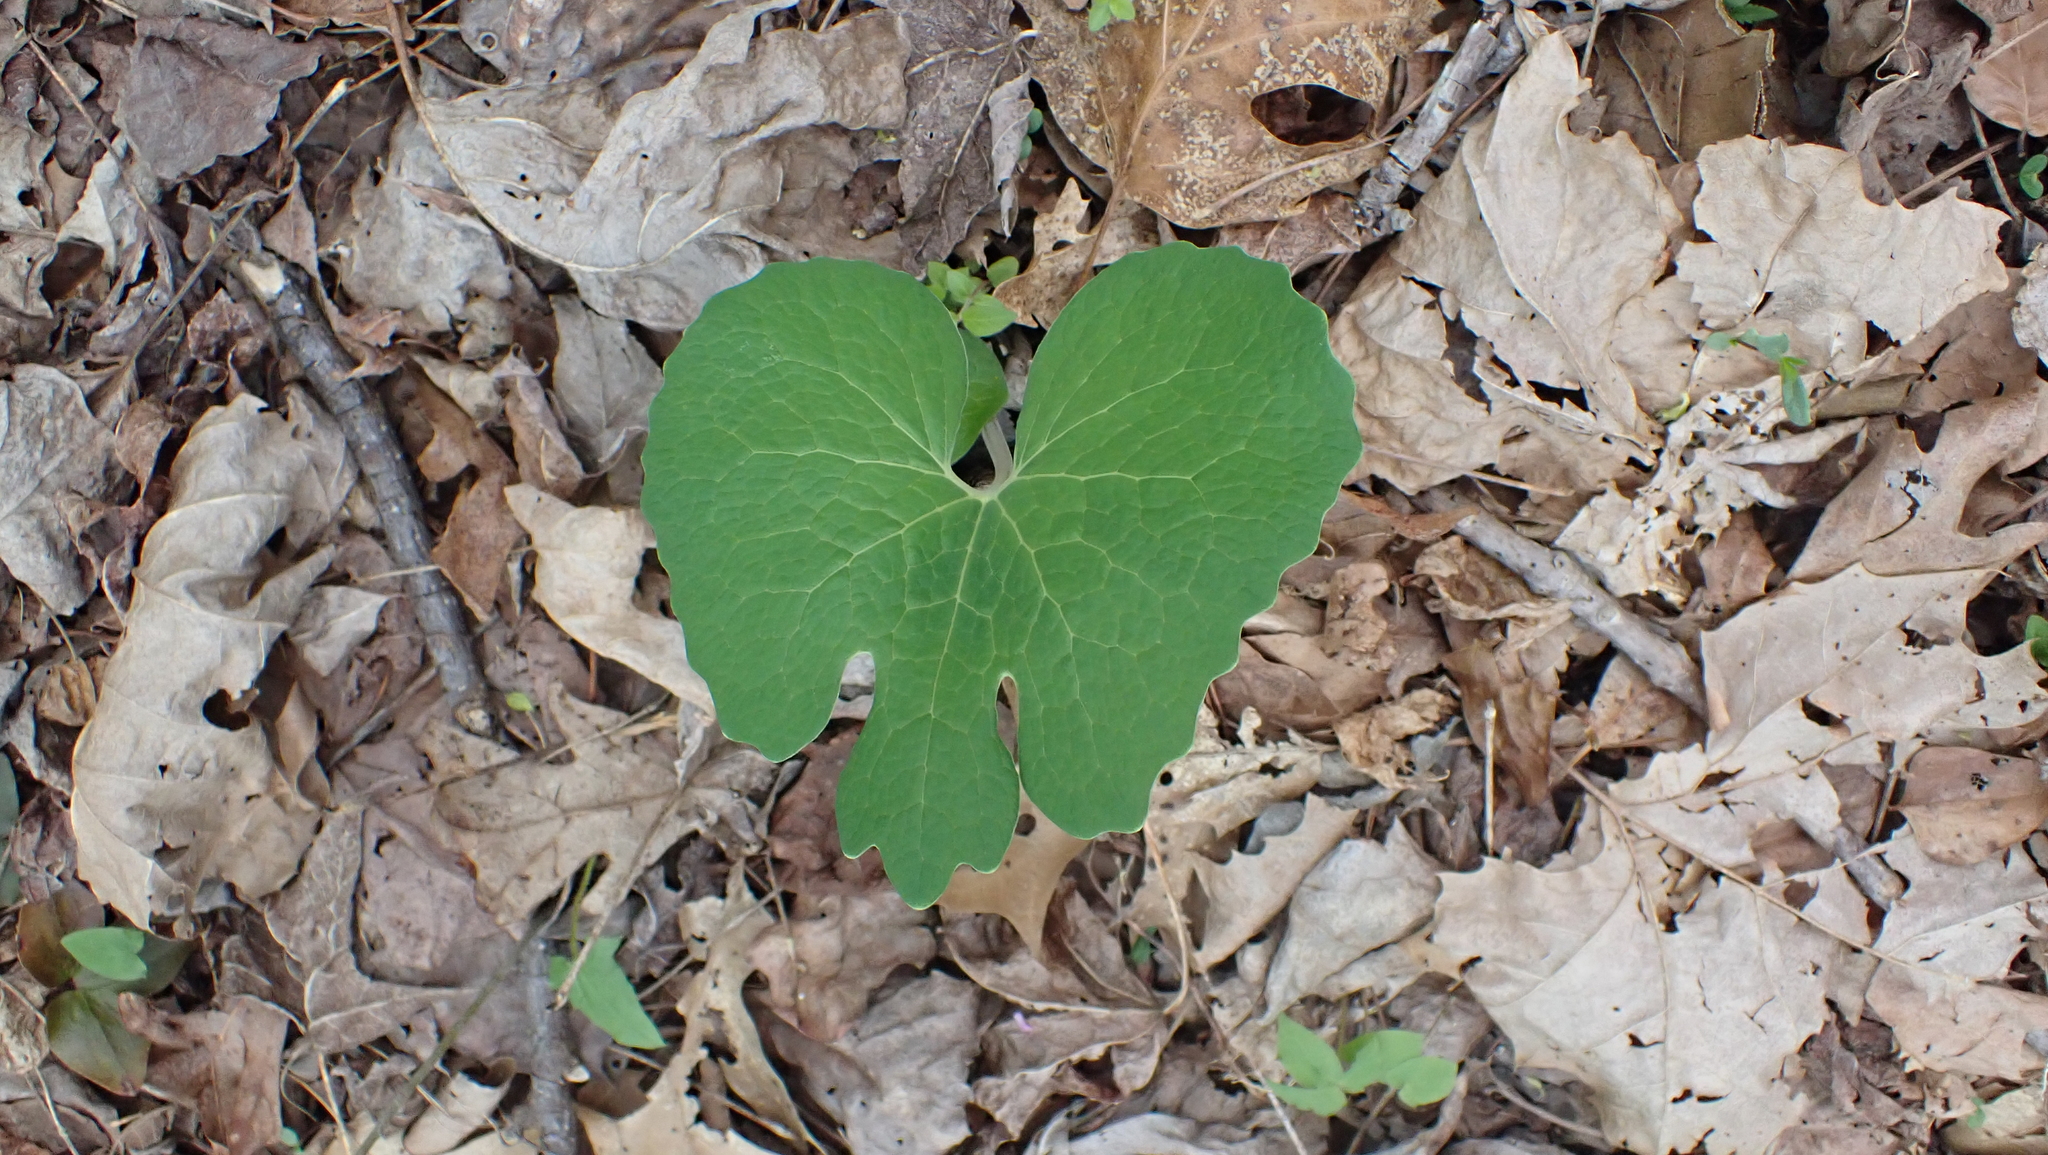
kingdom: Plantae
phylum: Tracheophyta
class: Magnoliopsida
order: Ranunculales
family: Papaveraceae
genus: Sanguinaria
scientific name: Sanguinaria canadensis
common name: Bloodroot
